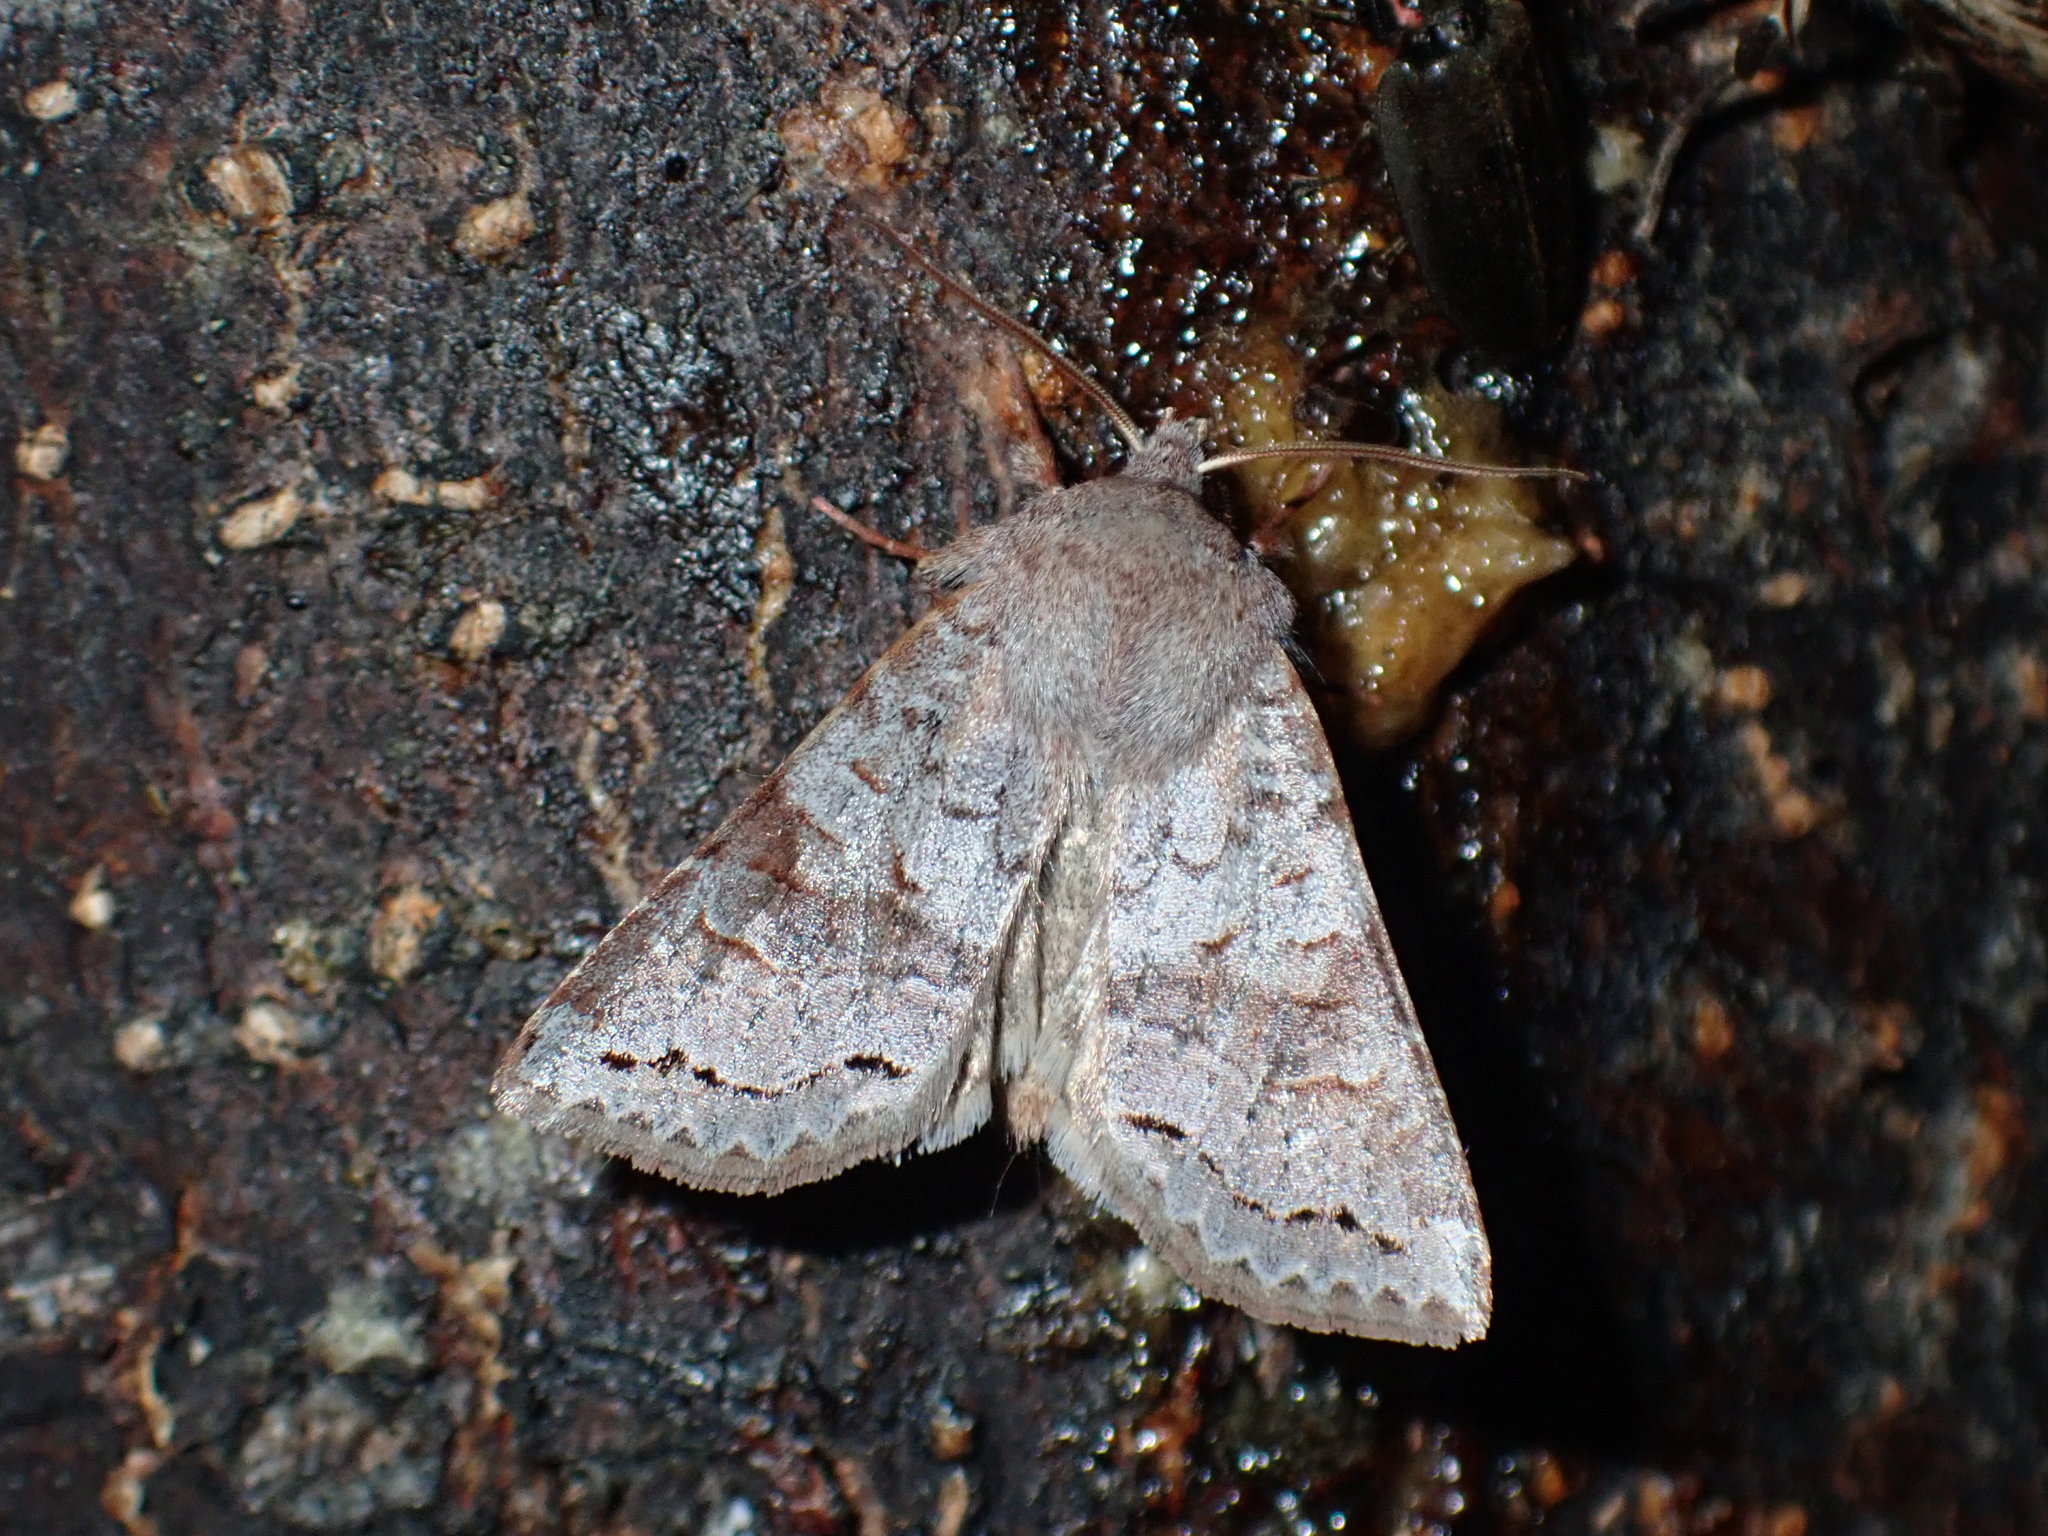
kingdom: Animalia
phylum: Arthropoda
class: Insecta
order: Lepidoptera
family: Noctuidae
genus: Orthosia
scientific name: Orthosia revicta
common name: Rusty whitesided caterpillar
